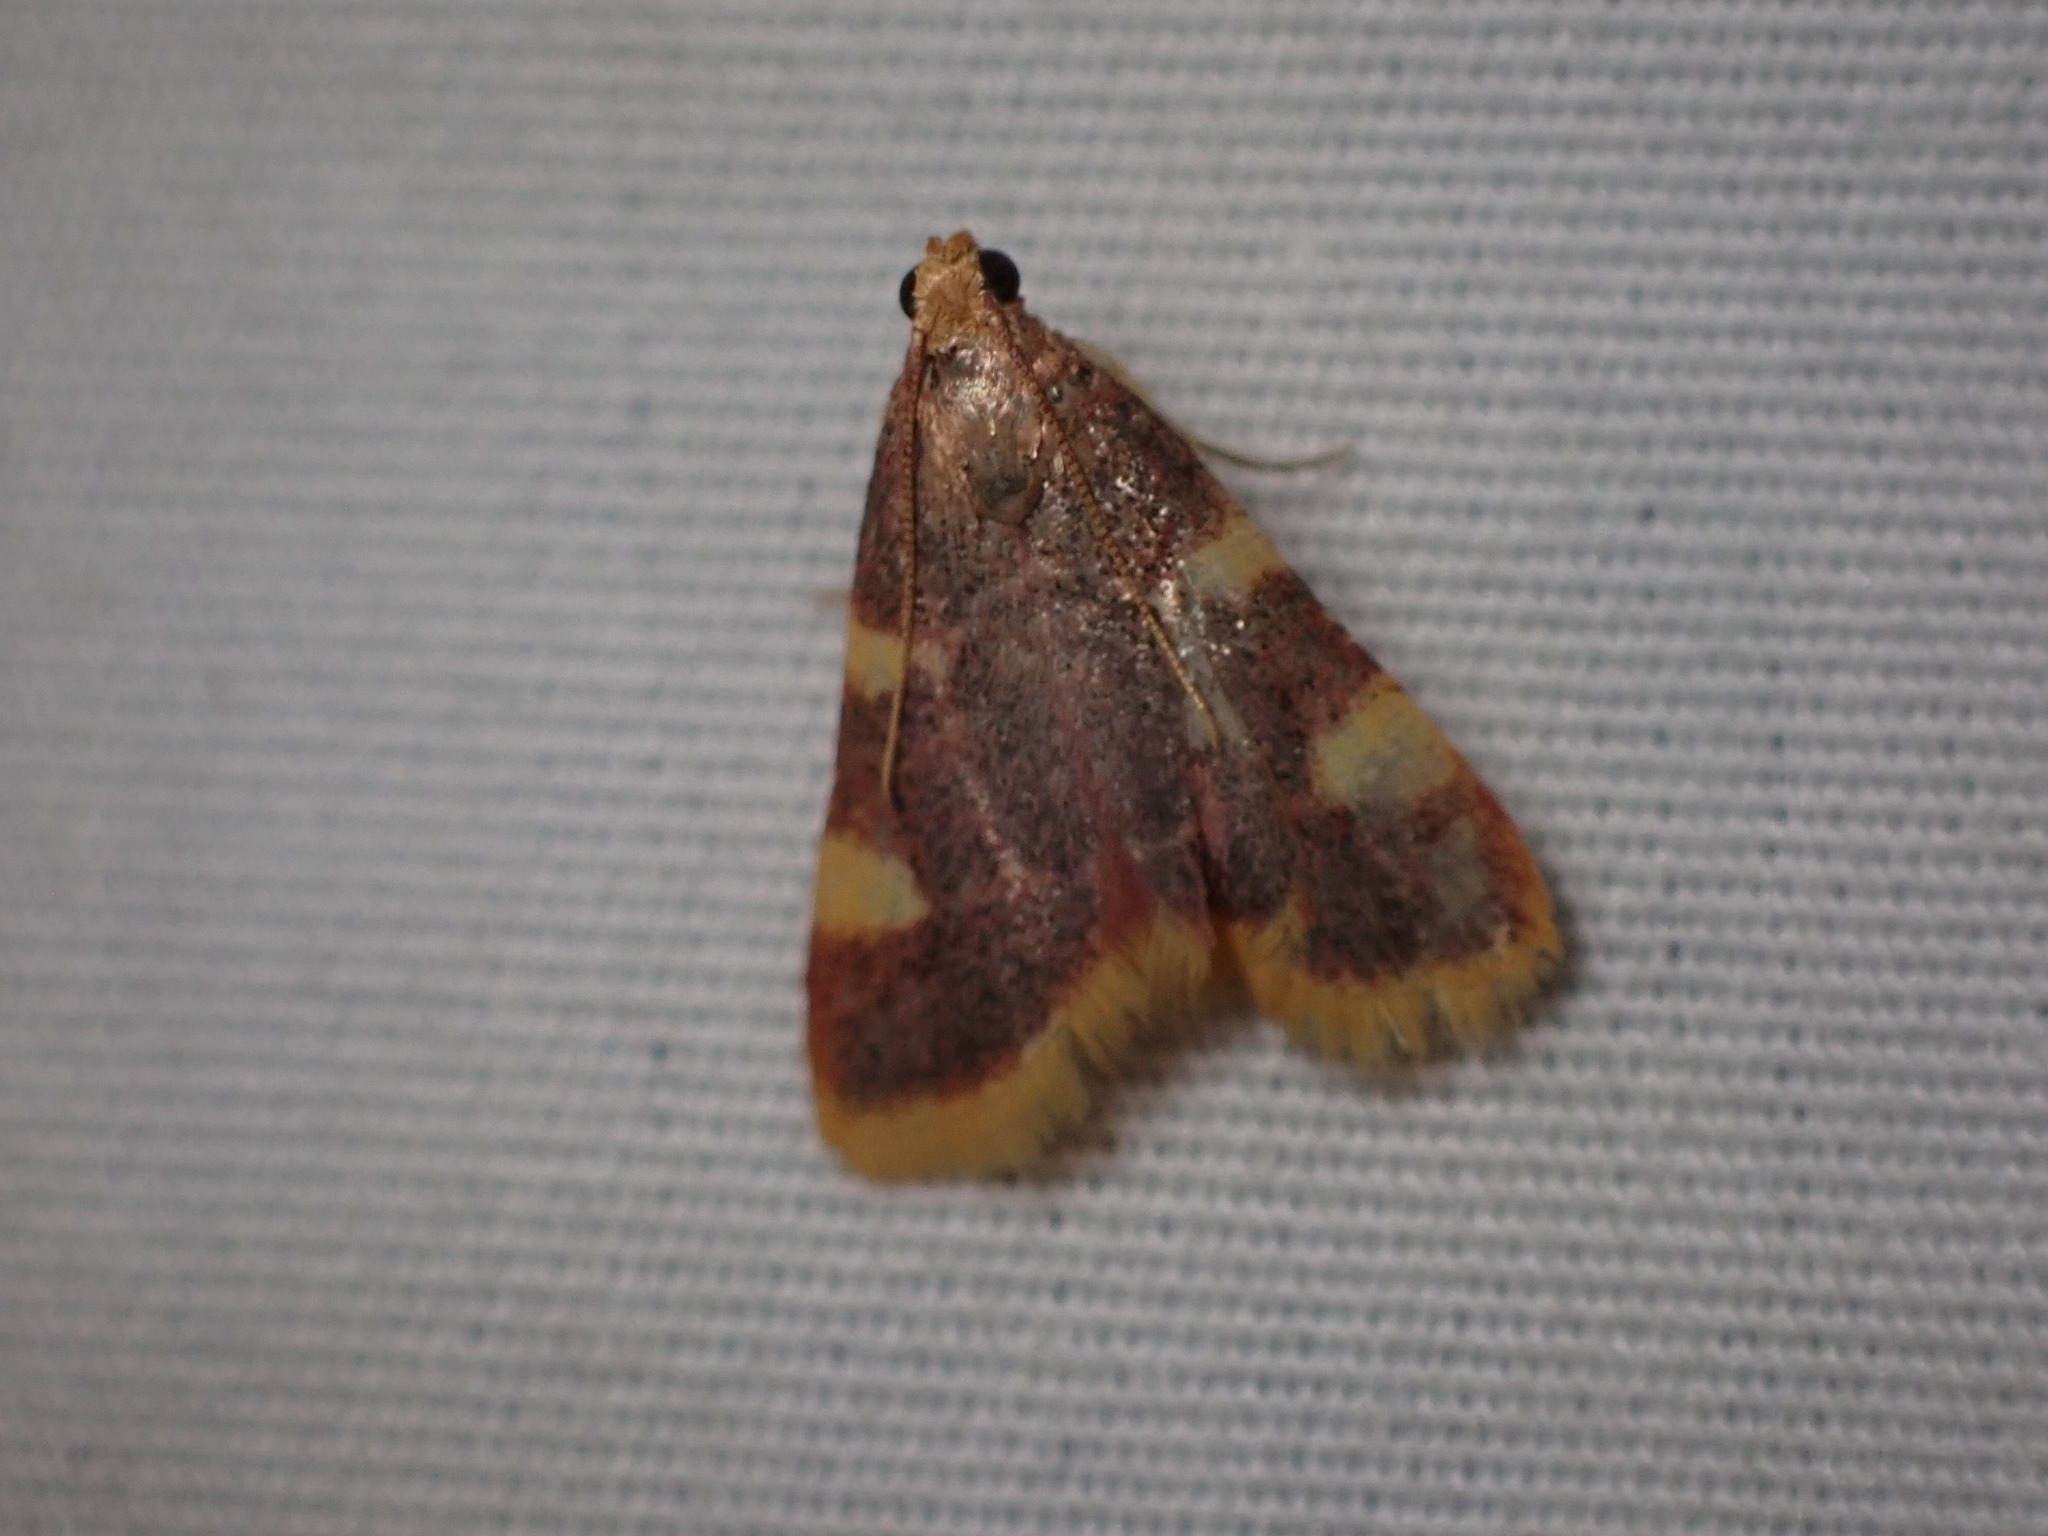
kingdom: Animalia
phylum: Arthropoda
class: Insecta
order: Lepidoptera
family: Pyralidae
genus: Hypsopygia
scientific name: Hypsopygia costalis
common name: Gold triangle
